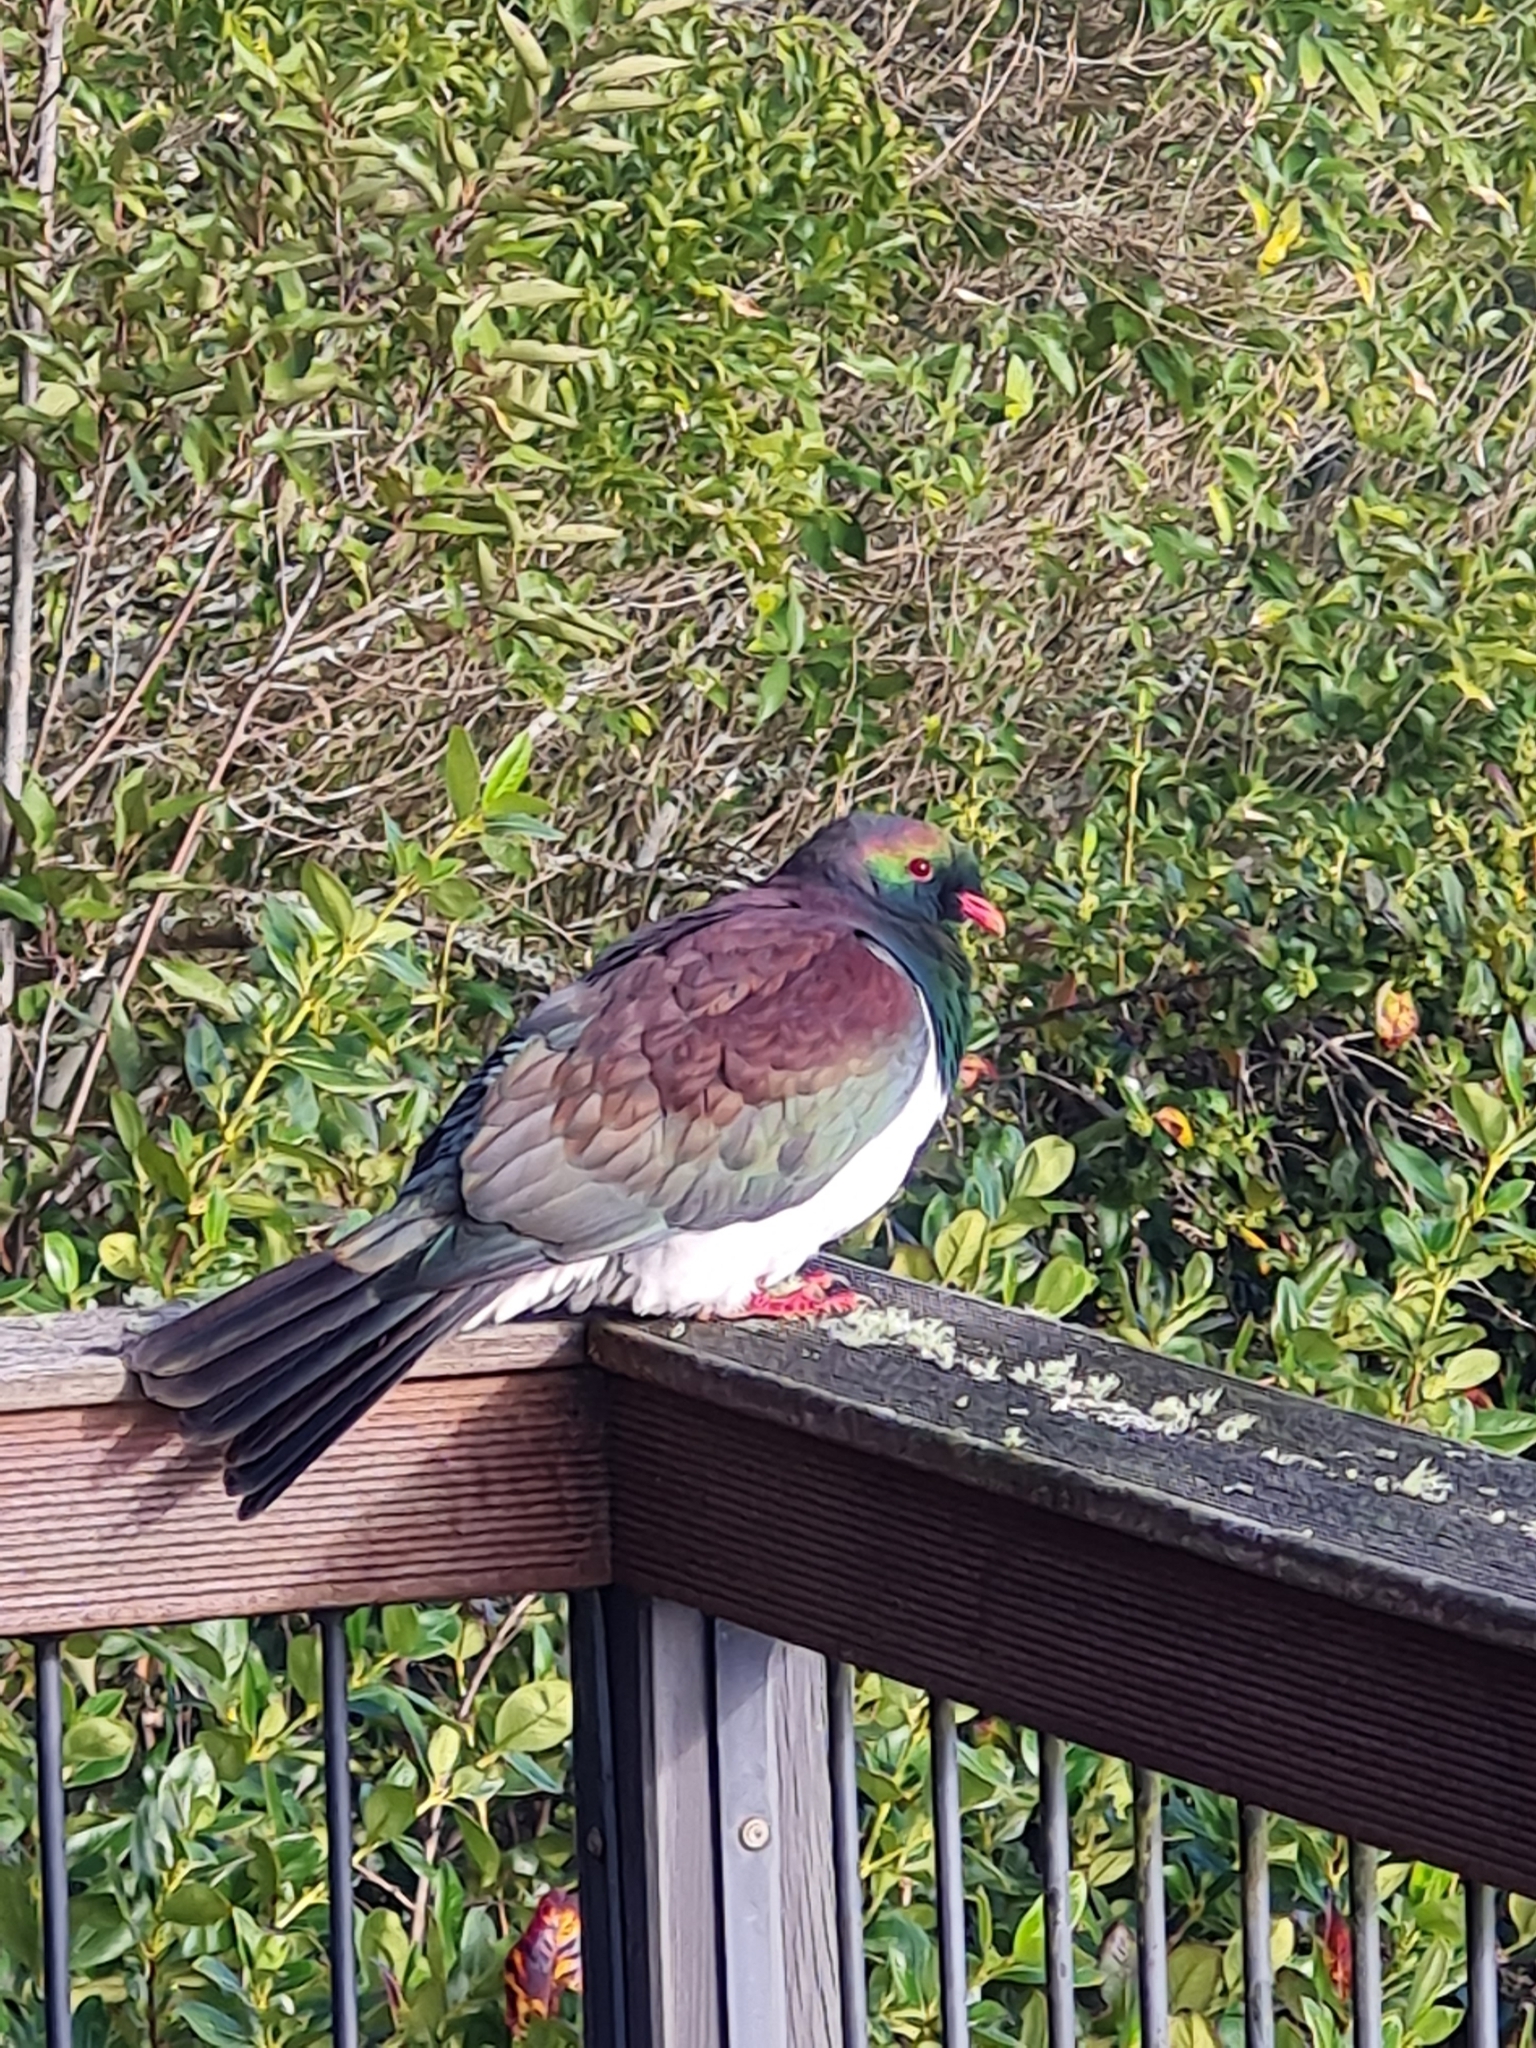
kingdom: Animalia
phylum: Chordata
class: Aves
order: Columbiformes
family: Columbidae
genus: Hemiphaga
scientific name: Hemiphaga novaeseelandiae
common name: New zealand pigeon
